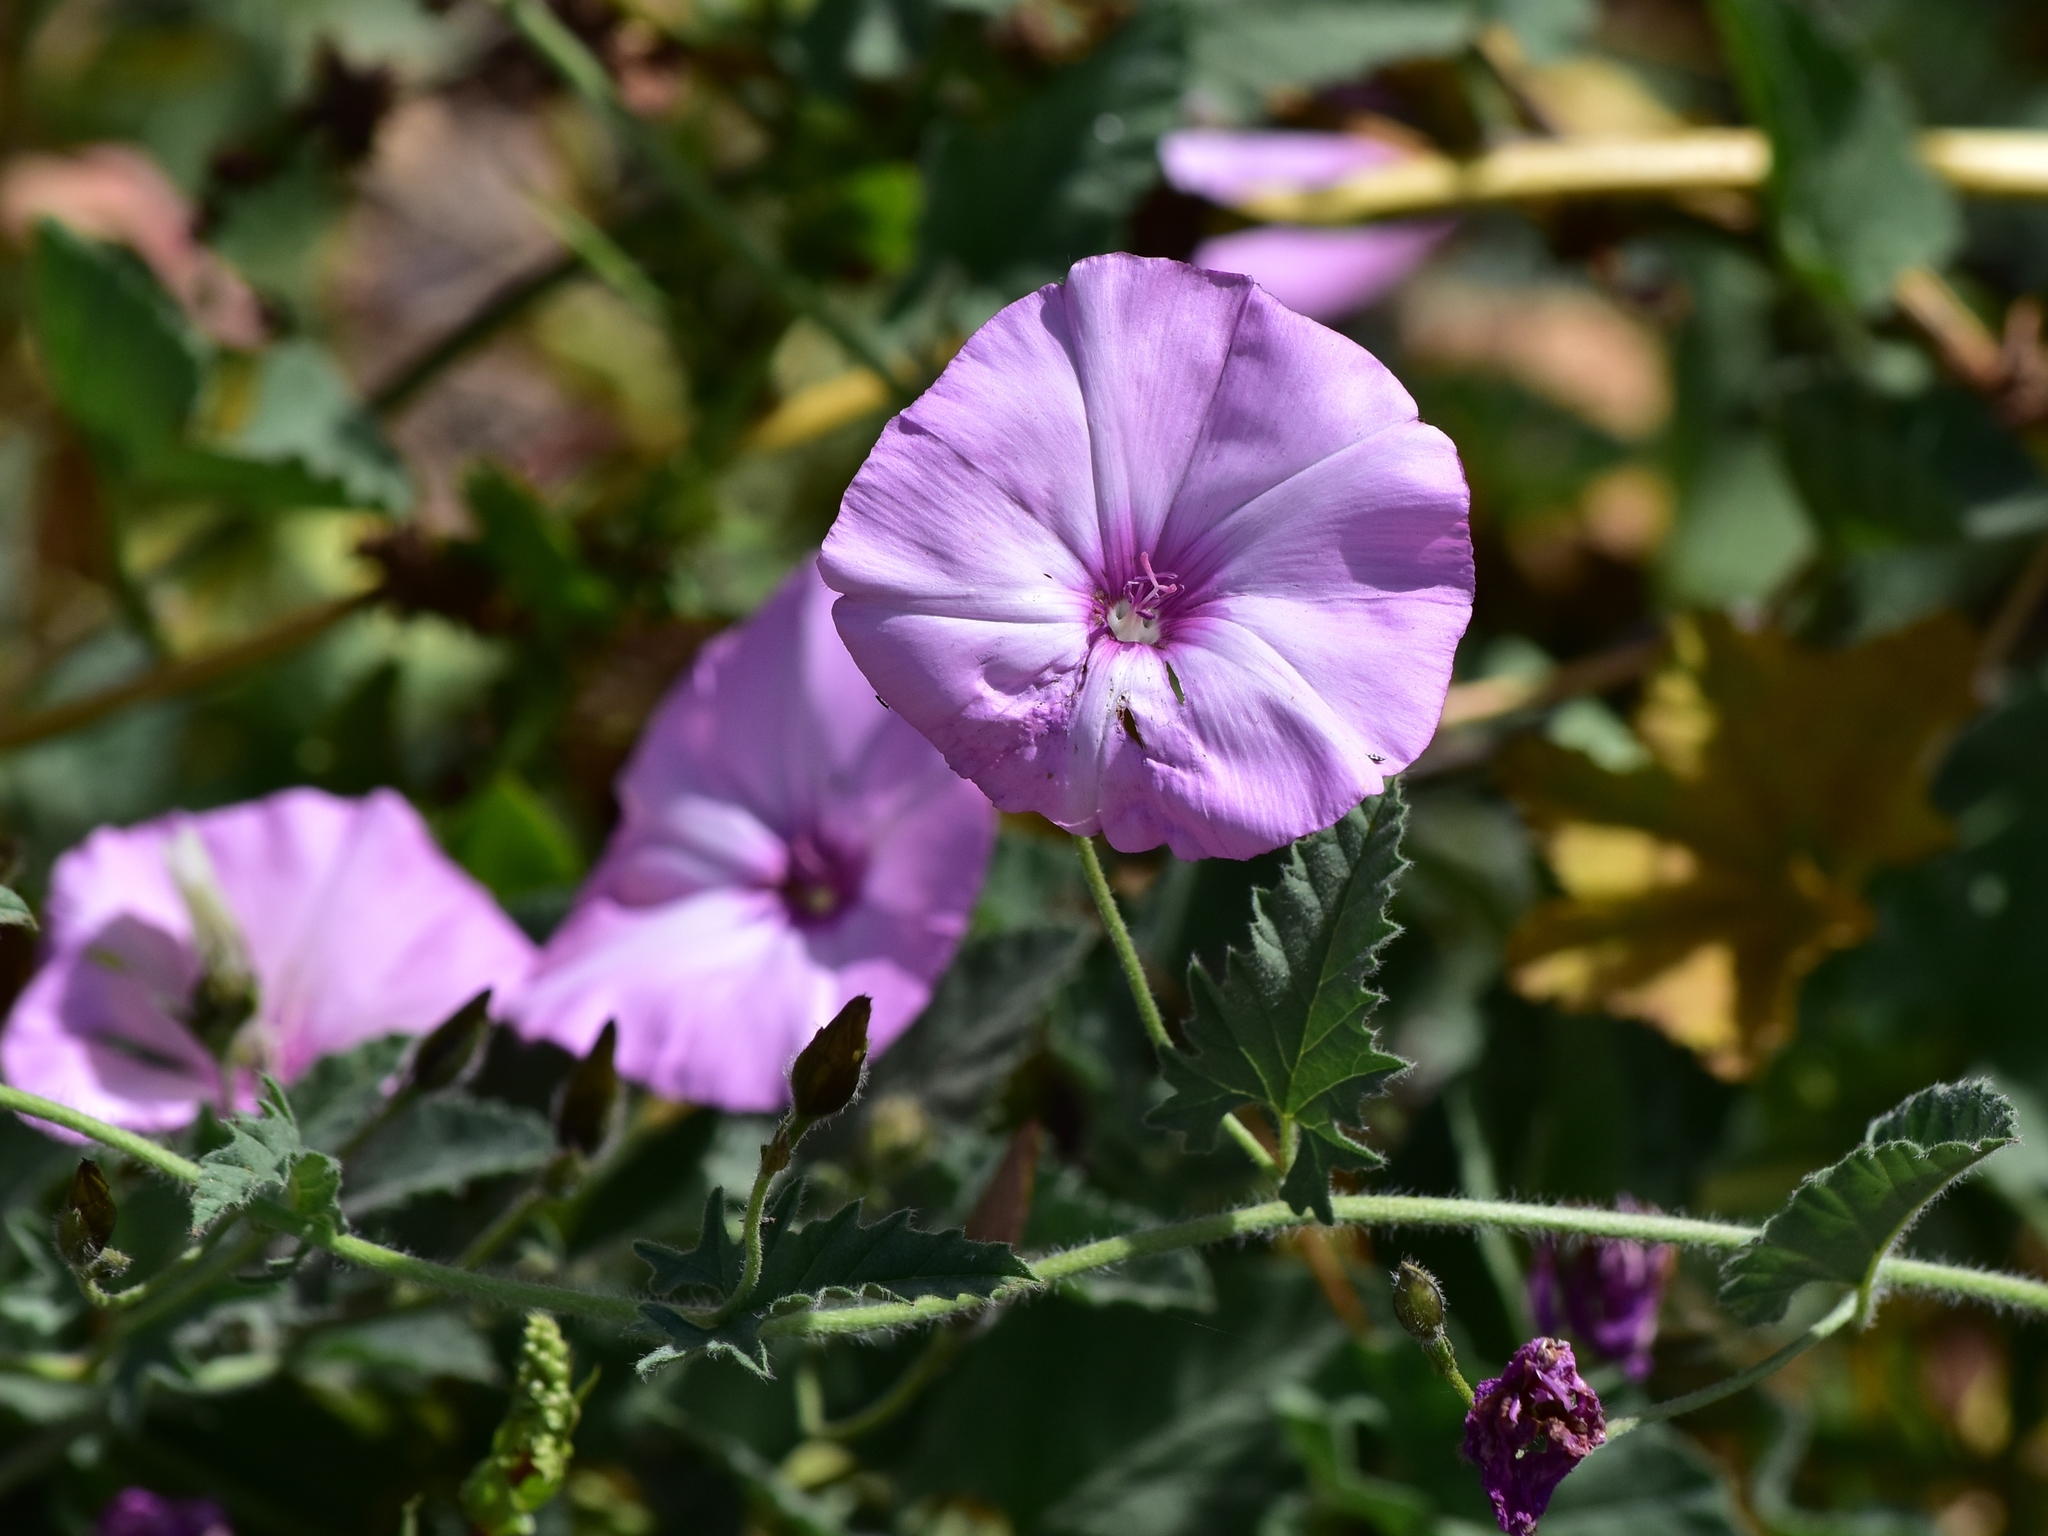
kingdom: Plantae
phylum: Tracheophyta
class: Magnoliopsida
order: Solanales
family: Convolvulaceae
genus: Convolvulus
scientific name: Convolvulus althaeoides
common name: Mallow bindweed
